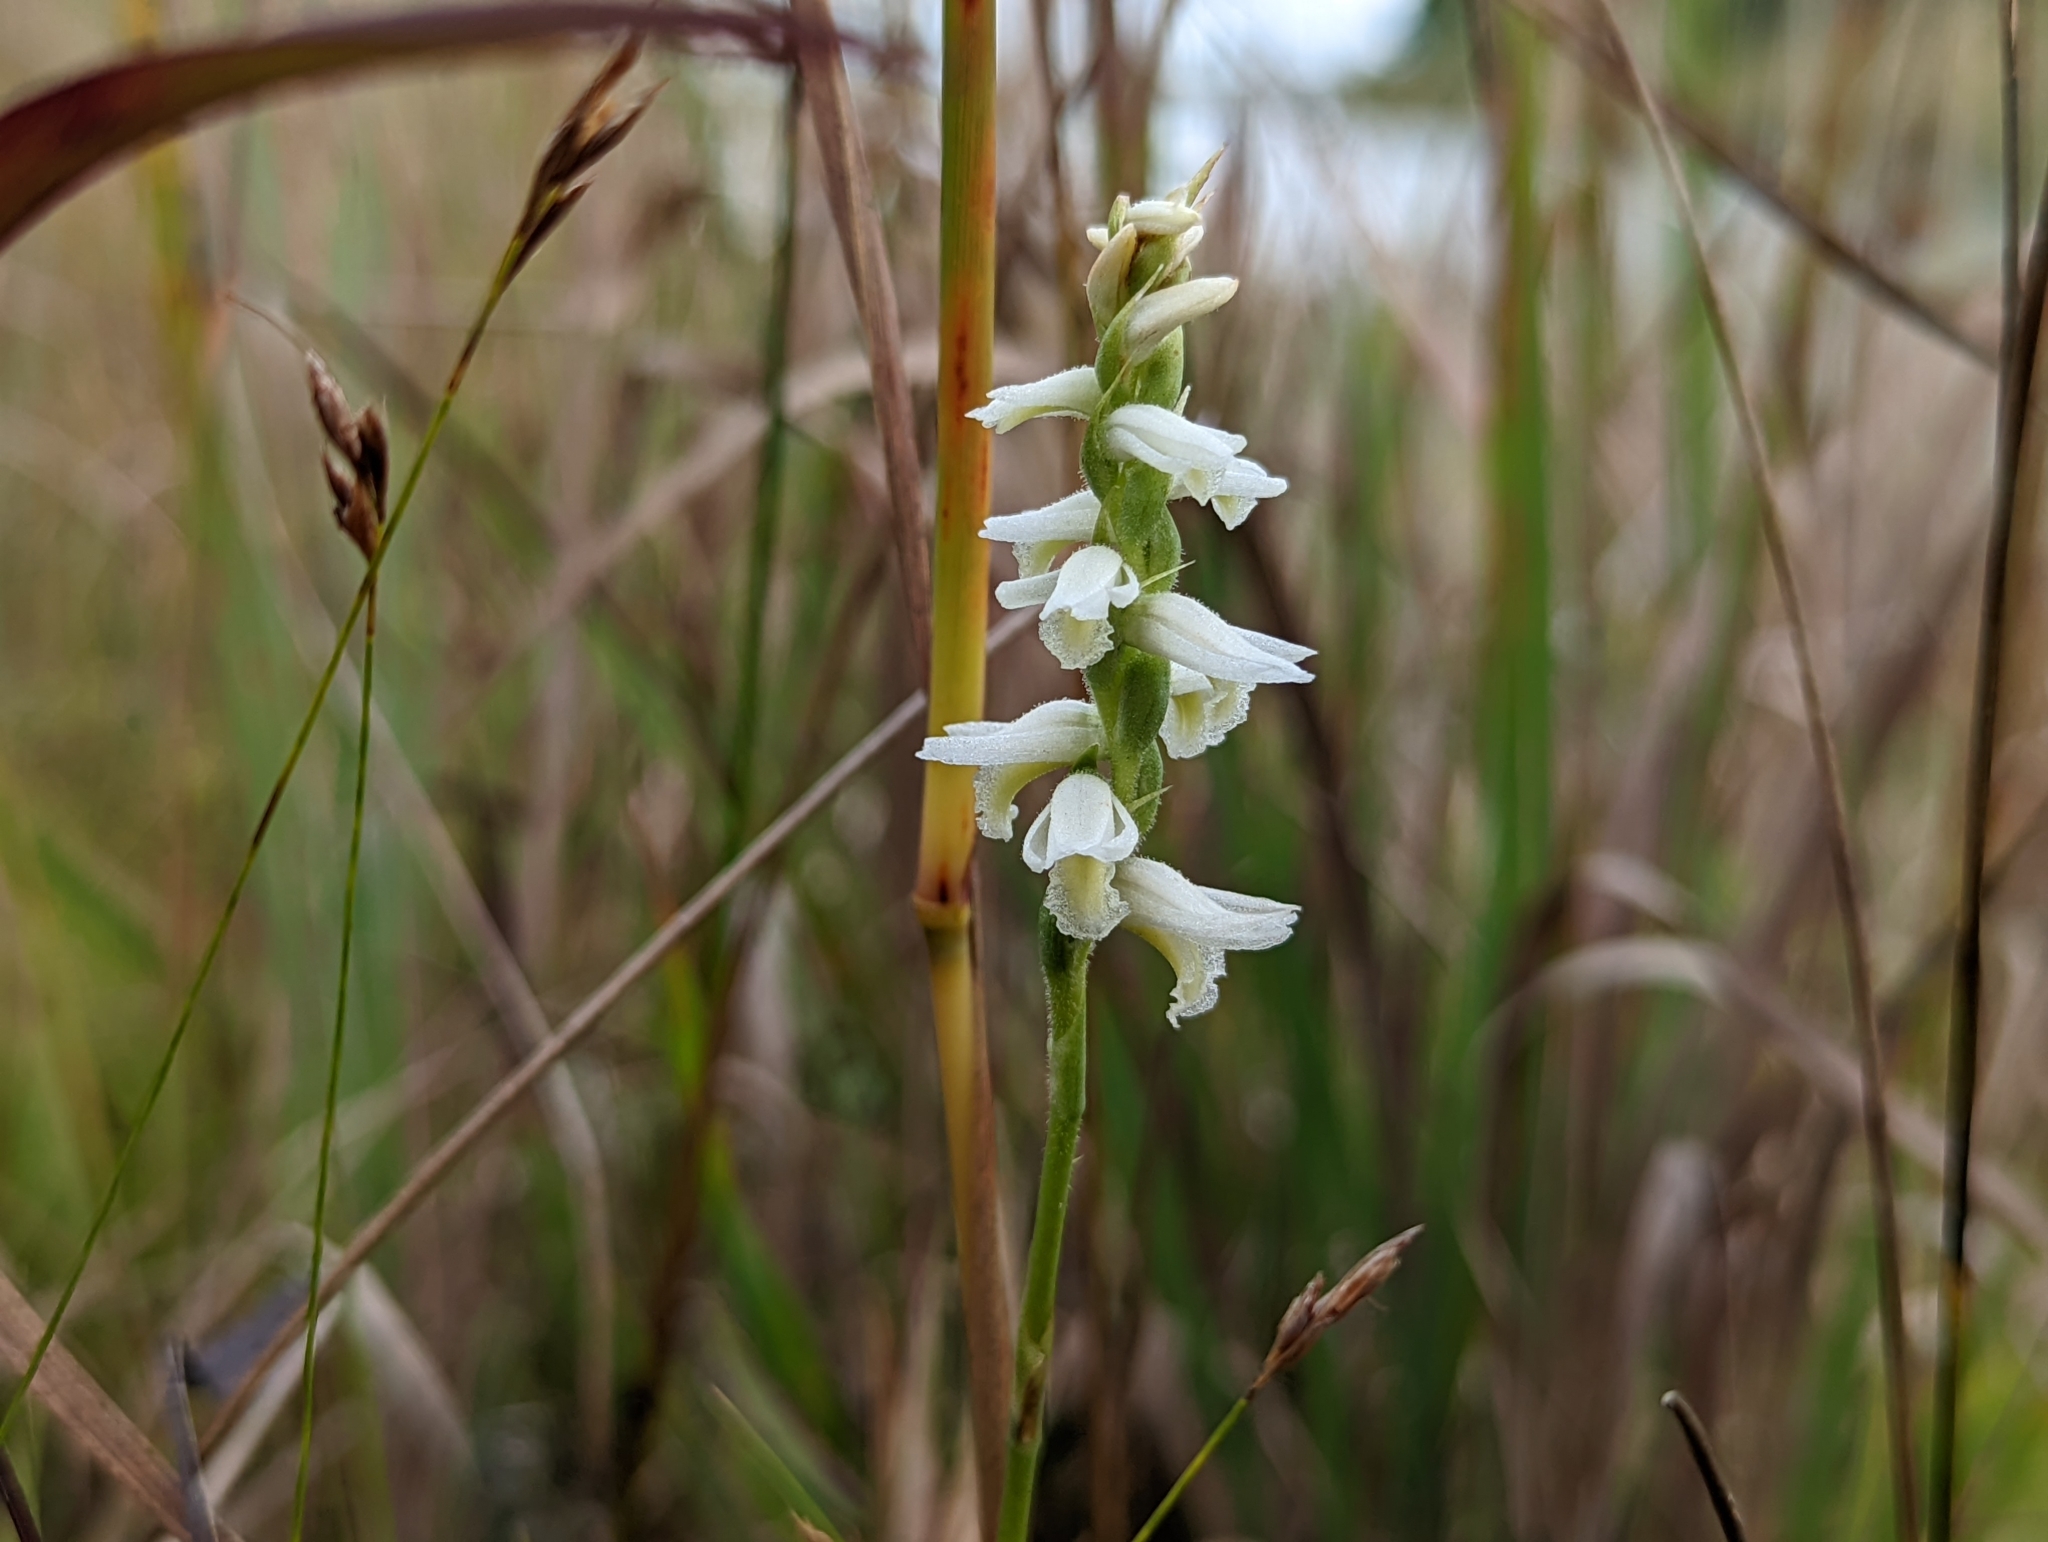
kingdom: Plantae
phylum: Tracheophyta
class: Liliopsida
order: Asparagales
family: Orchidaceae
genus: Spiranthes
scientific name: Spiranthes magnicamporum
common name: Great plains ladies'-tresses
